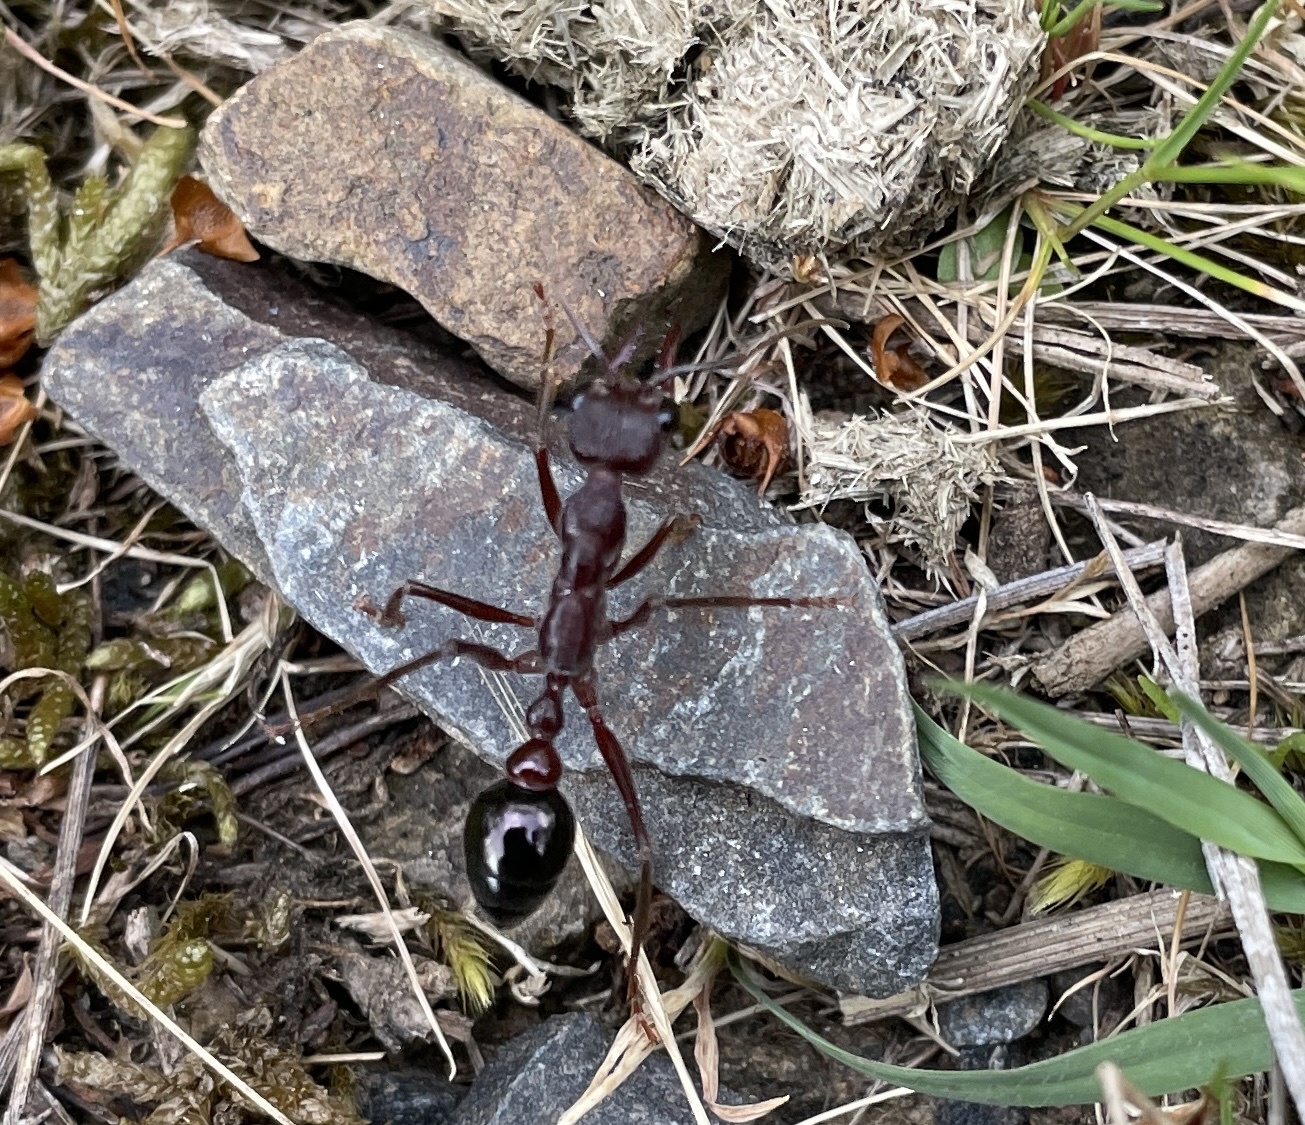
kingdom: Animalia
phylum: Arthropoda
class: Insecta
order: Hymenoptera
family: Formicidae
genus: Myrmecia
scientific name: Myrmecia forficata
